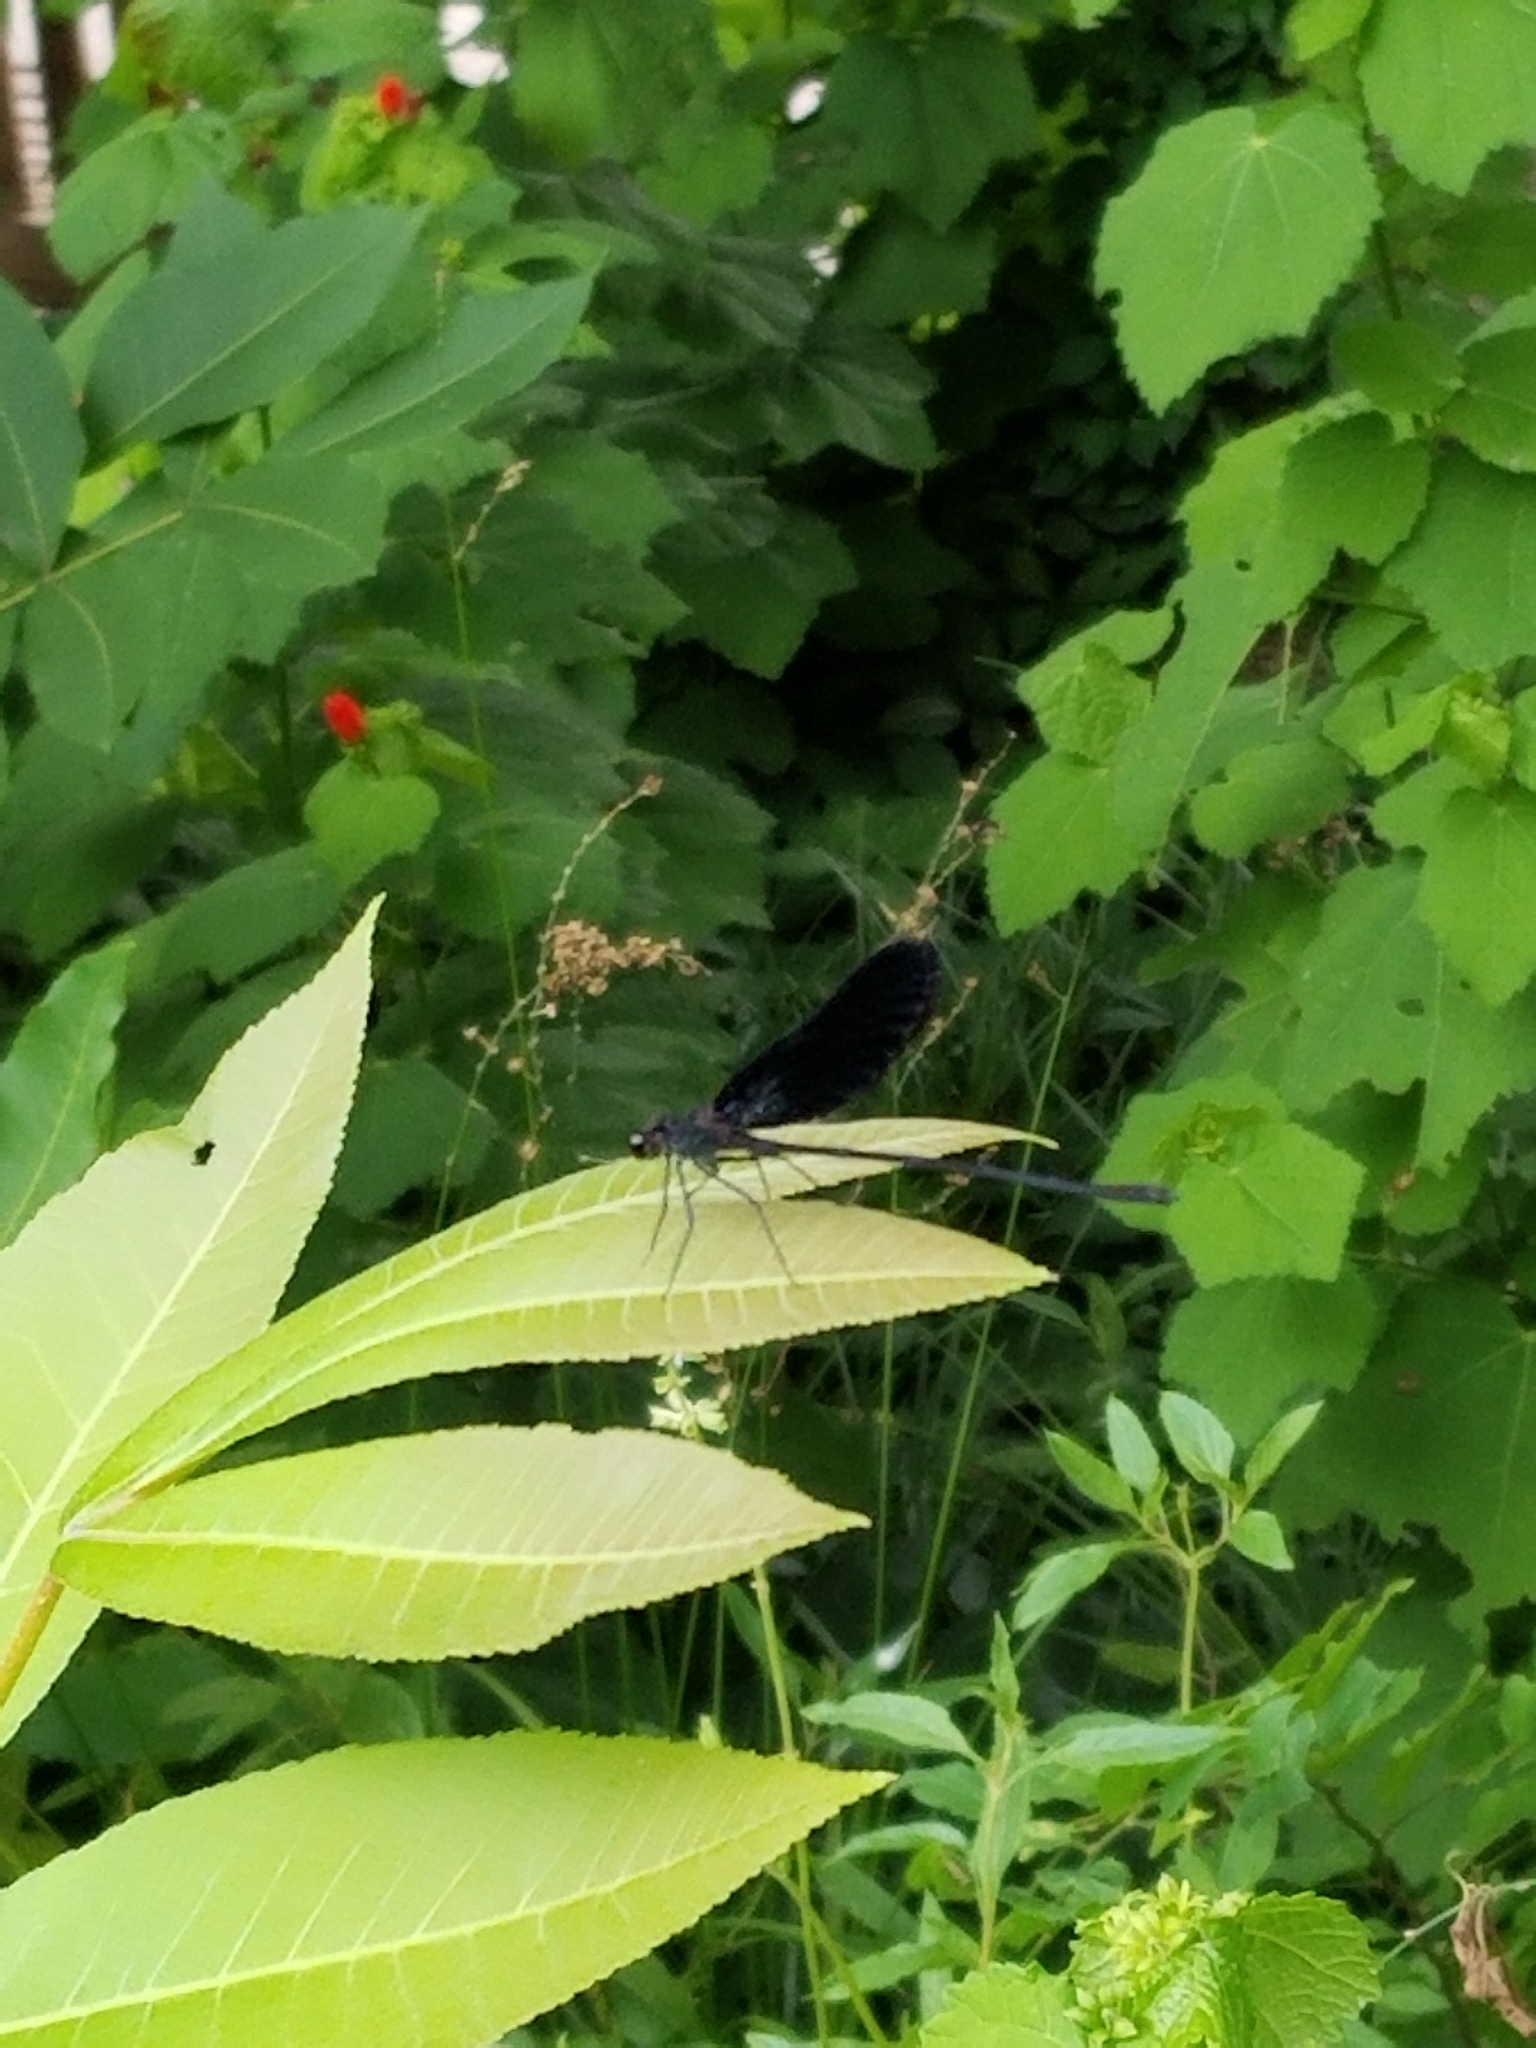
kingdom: Animalia
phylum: Arthropoda
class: Insecta
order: Odonata
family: Calopterygidae
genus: Hetaerina
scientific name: Hetaerina titia
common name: Smoky rubyspot
